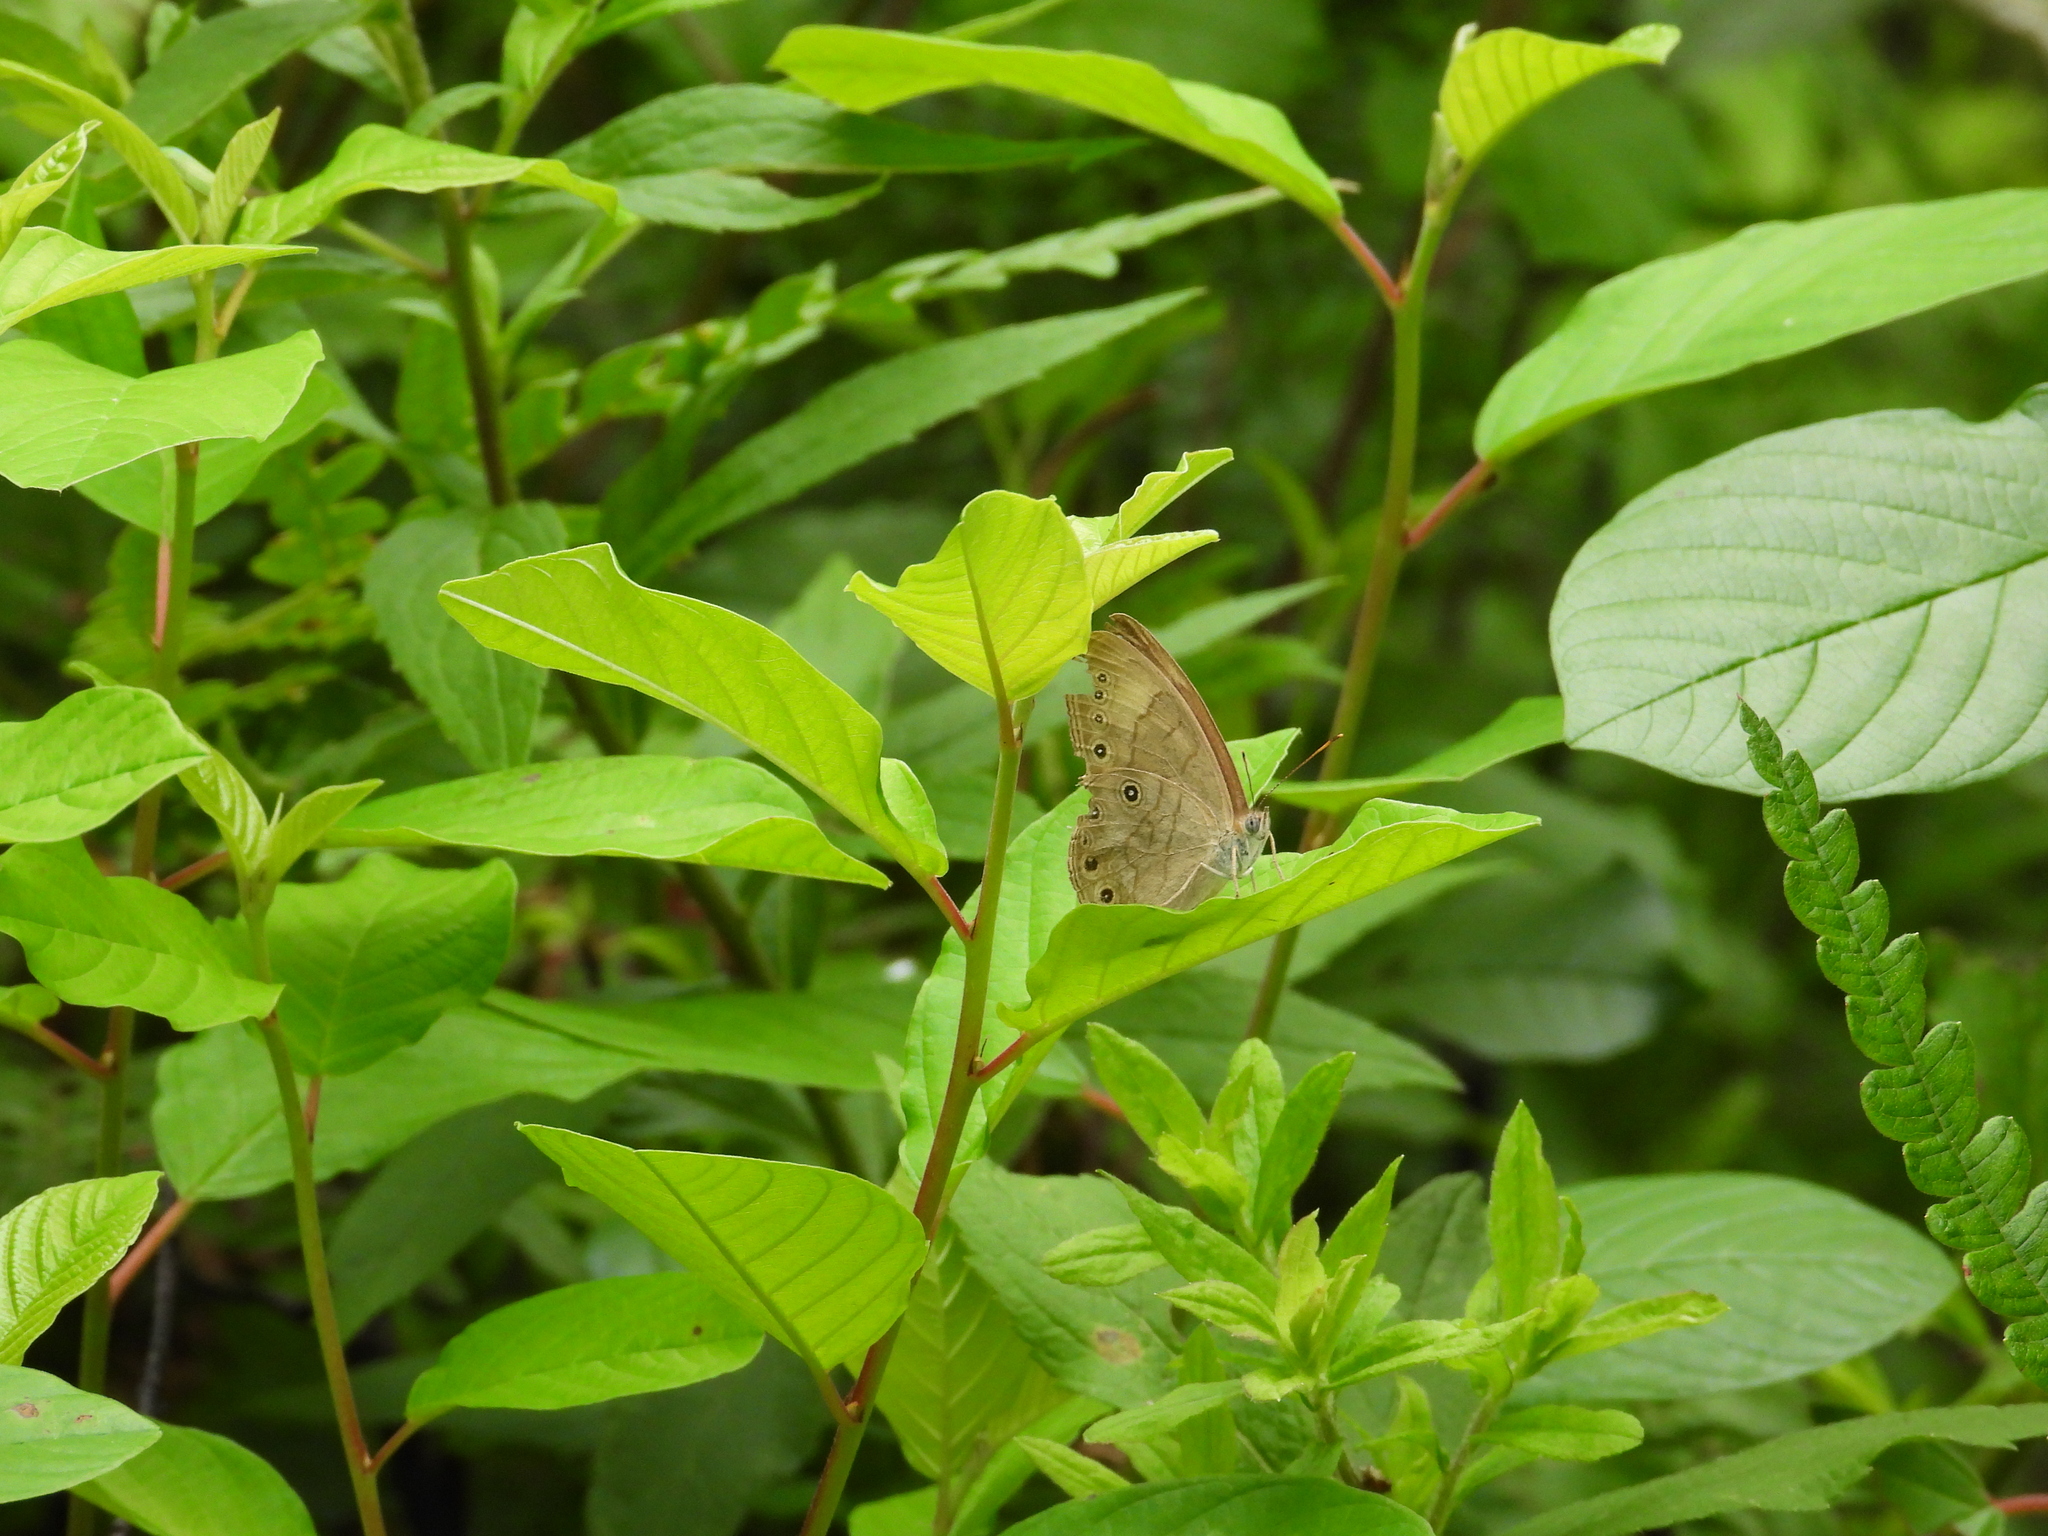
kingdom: Animalia
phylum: Arthropoda
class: Insecta
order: Lepidoptera
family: Nymphalidae
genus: Lethe
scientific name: Lethe eurydice
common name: Eyed brown
